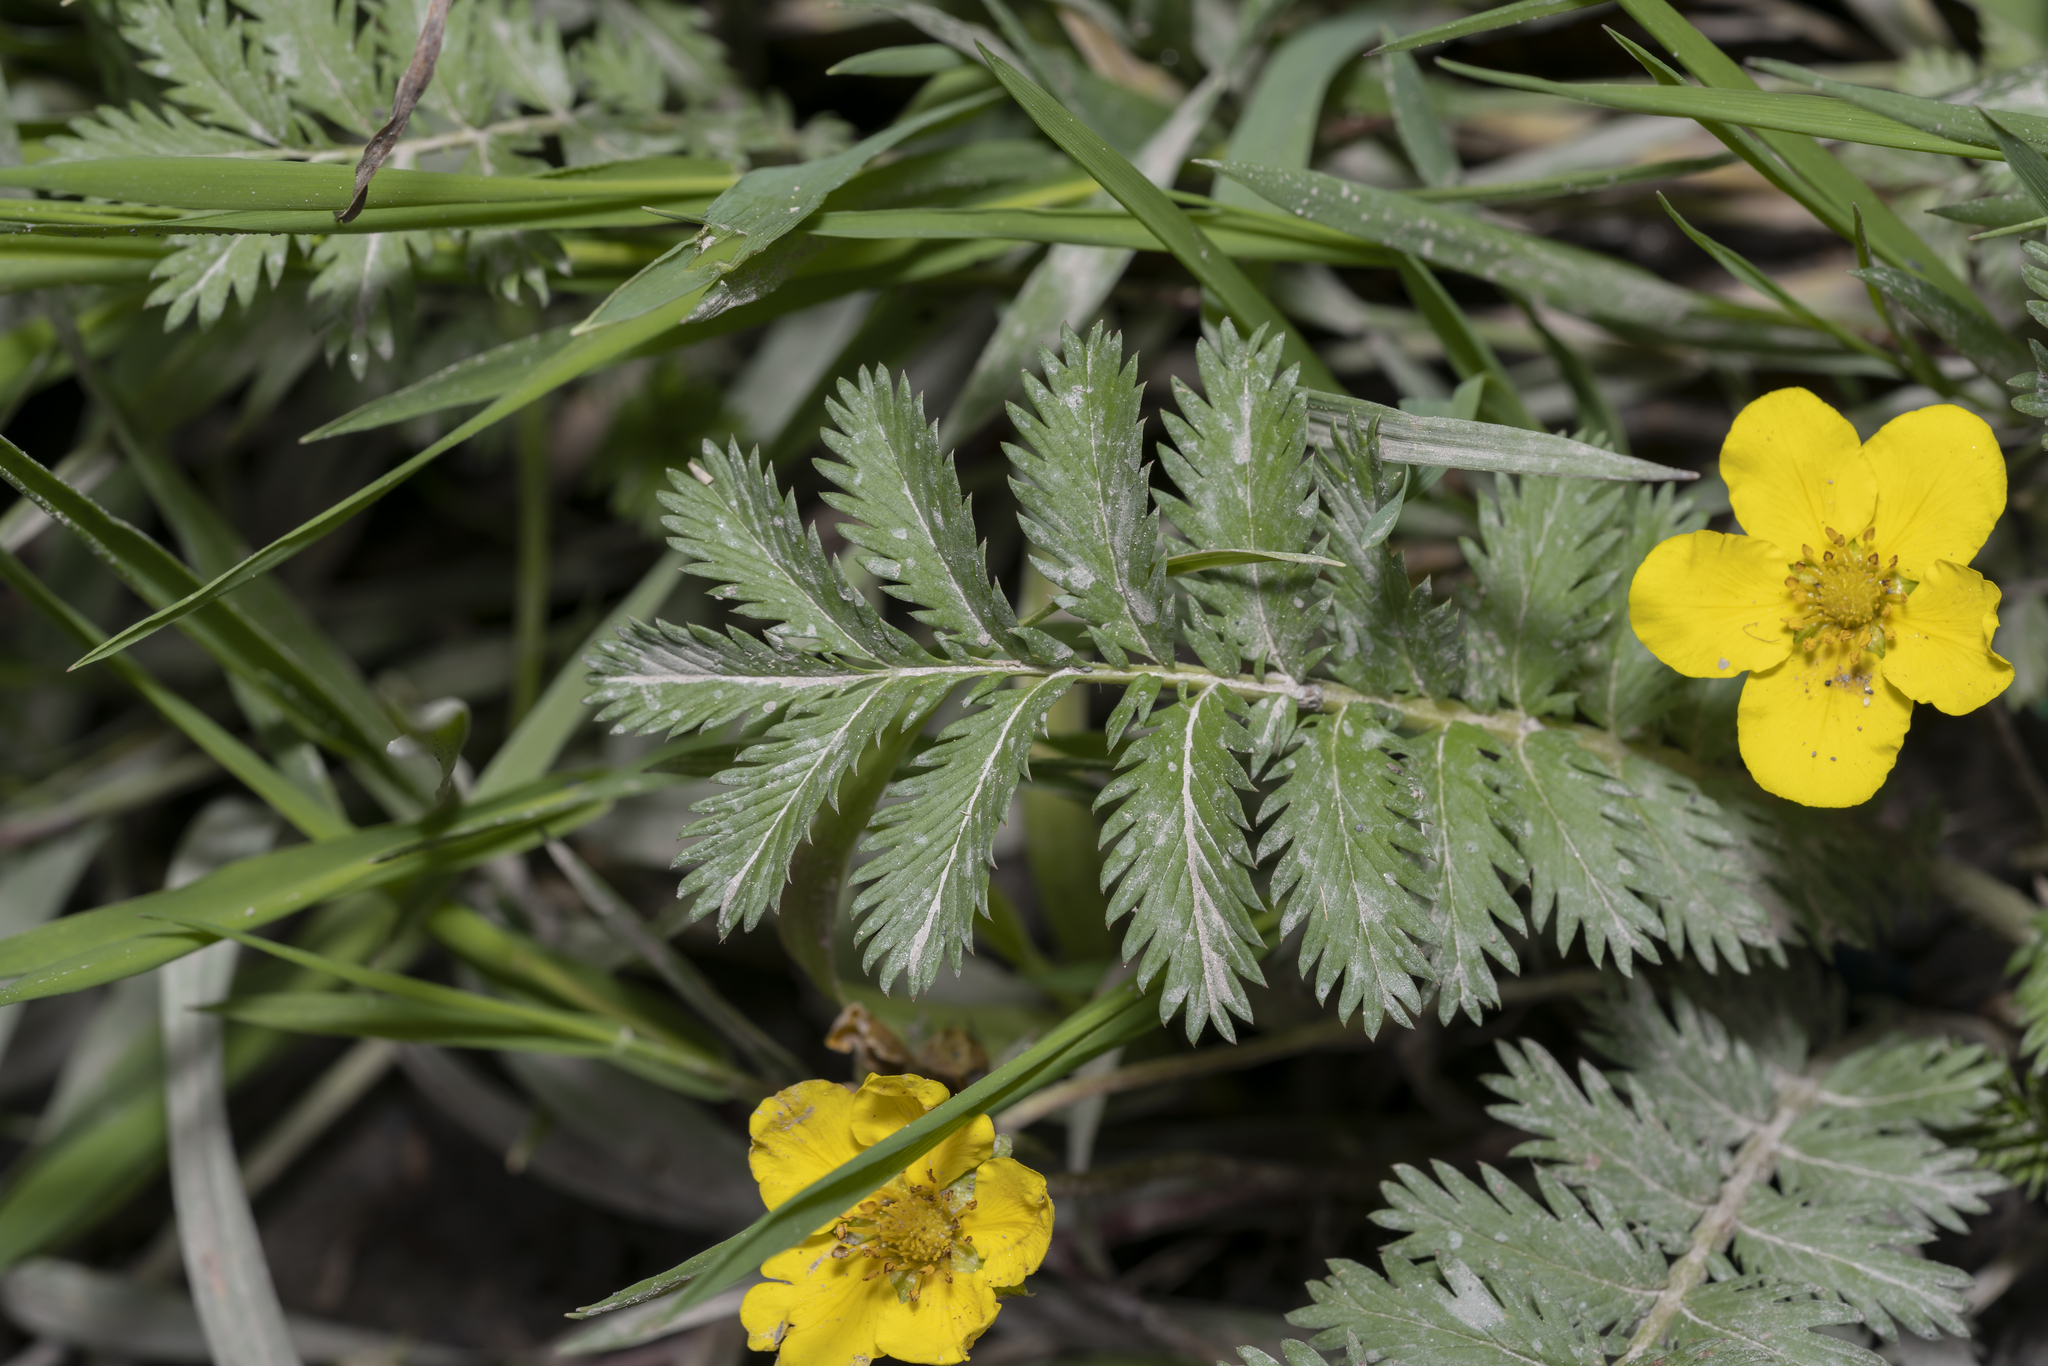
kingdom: Plantae
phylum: Tracheophyta
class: Magnoliopsida
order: Rosales
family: Rosaceae
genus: Argentina
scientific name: Argentina anserina
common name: Common silverweed
